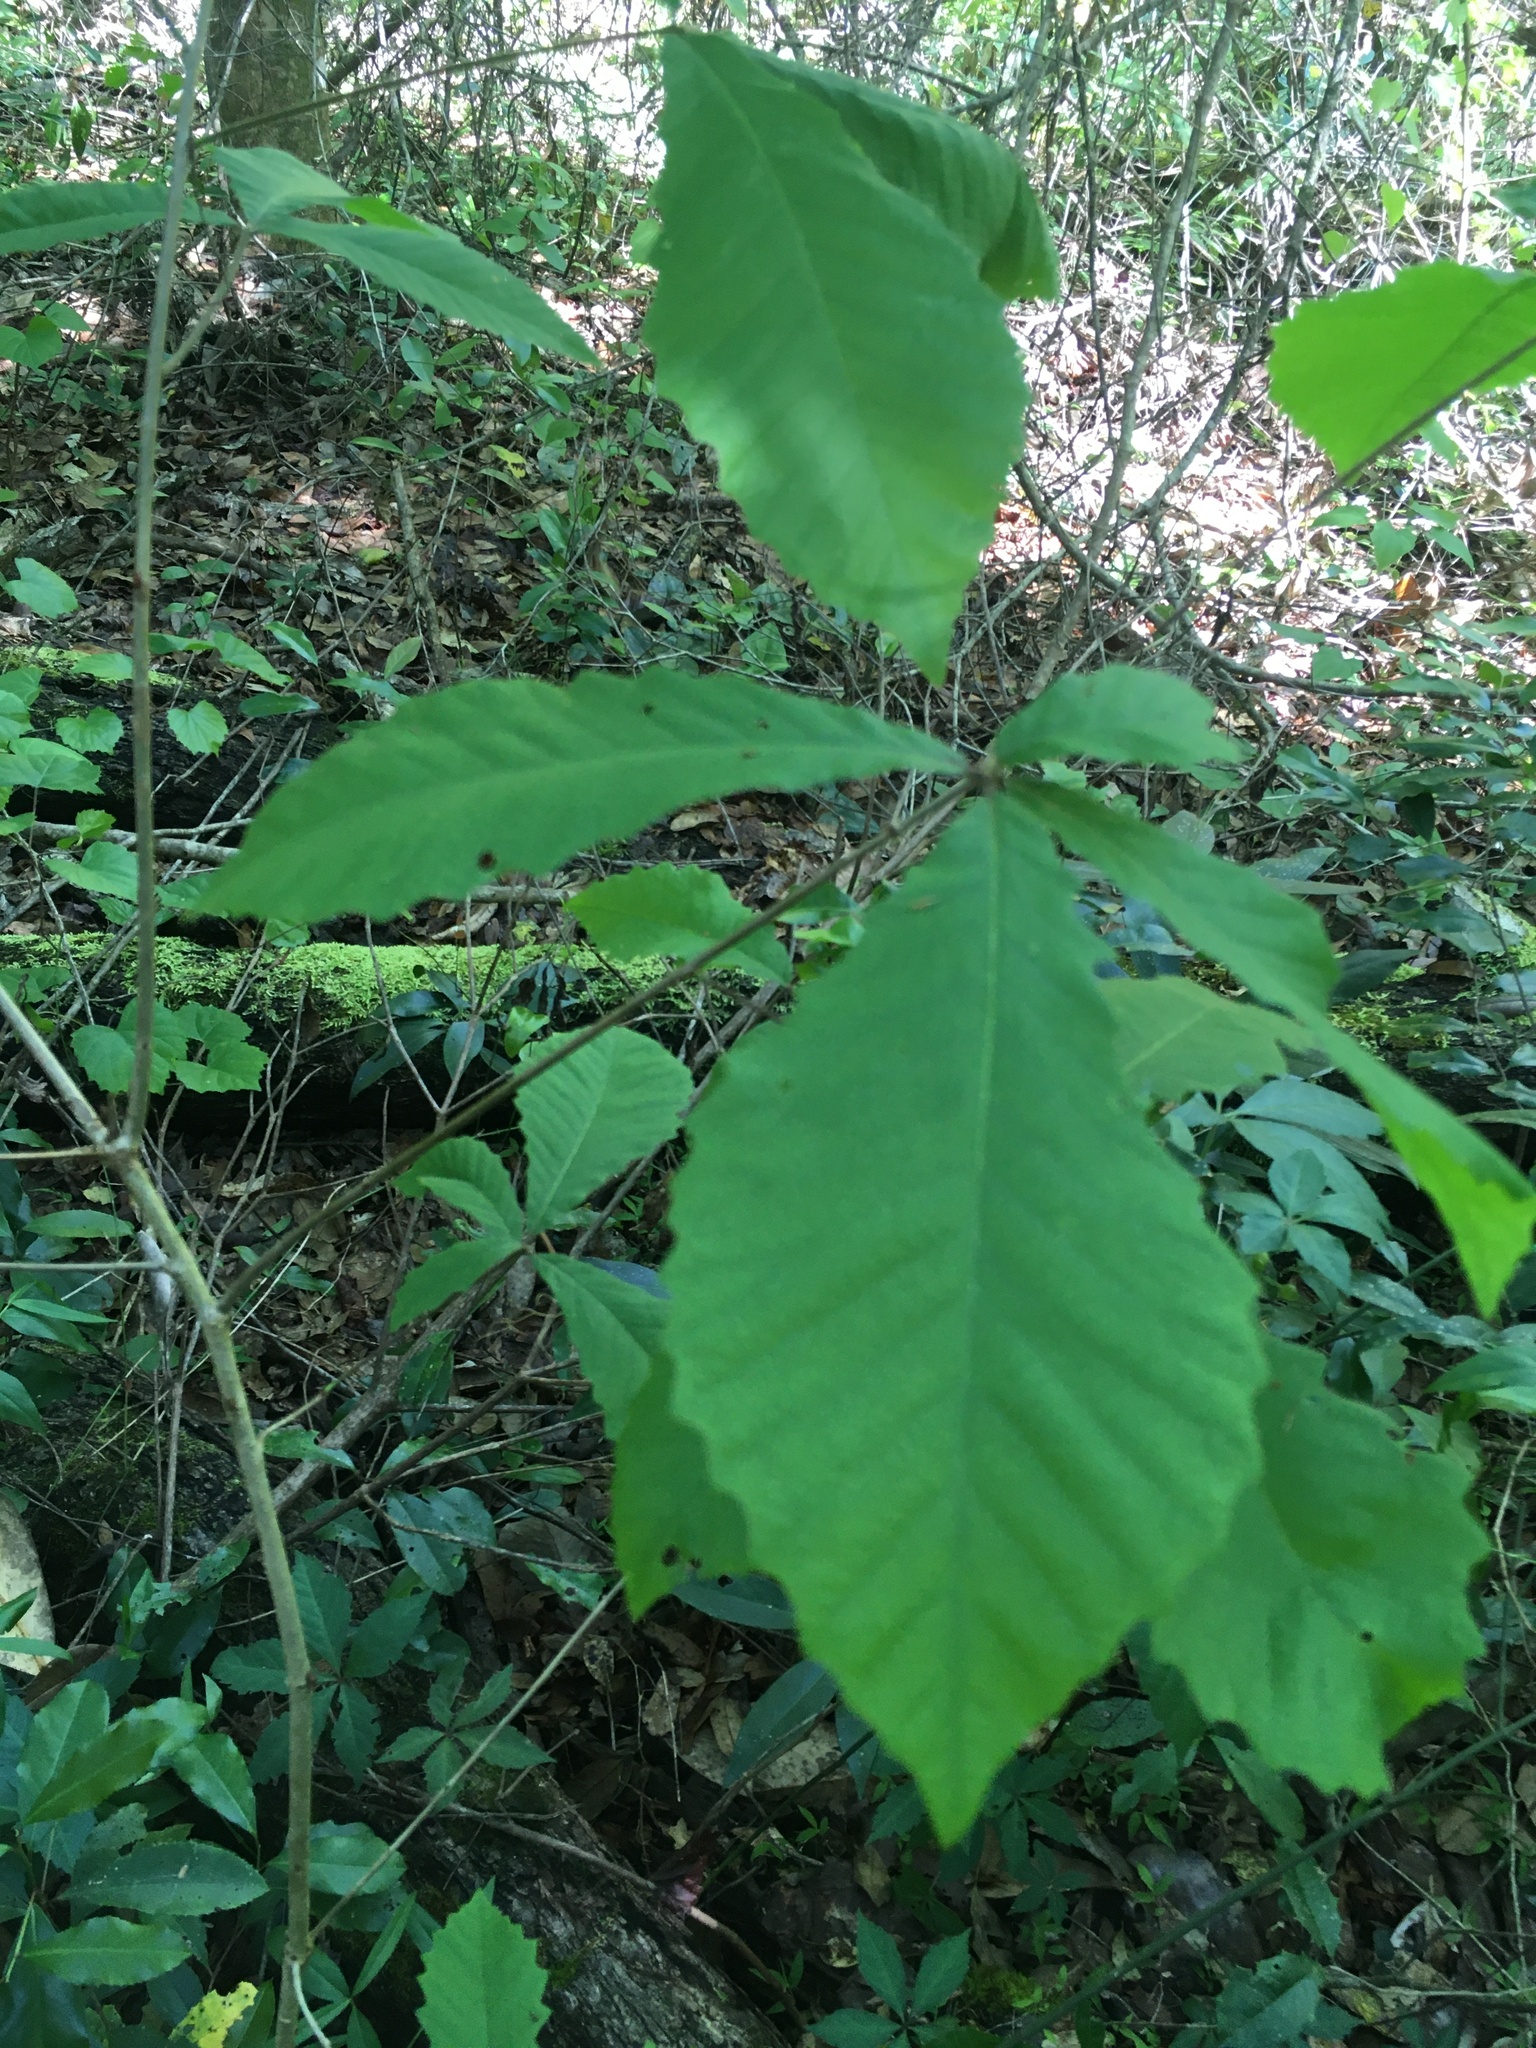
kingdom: Plantae
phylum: Tracheophyta
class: Magnoliopsida
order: Fagales
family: Fagaceae
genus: Quercus
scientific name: Quercus michauxii
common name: Swamp chestnut oak
